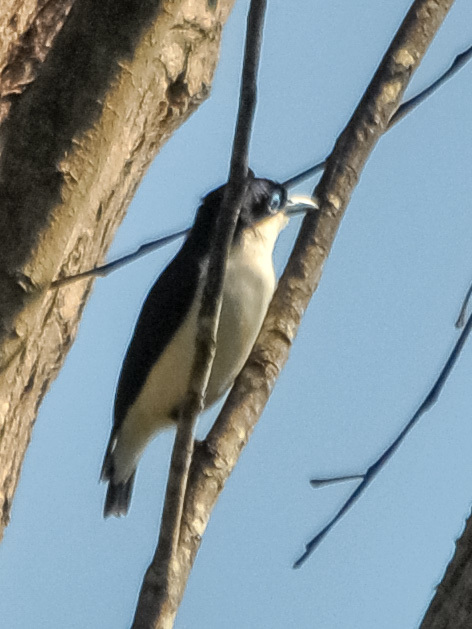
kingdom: Animalia
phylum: Chordata
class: Aves
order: Passeriformes
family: Vangidae
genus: Leptopterus
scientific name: Leptopterus chabert
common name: Chabert vanga
